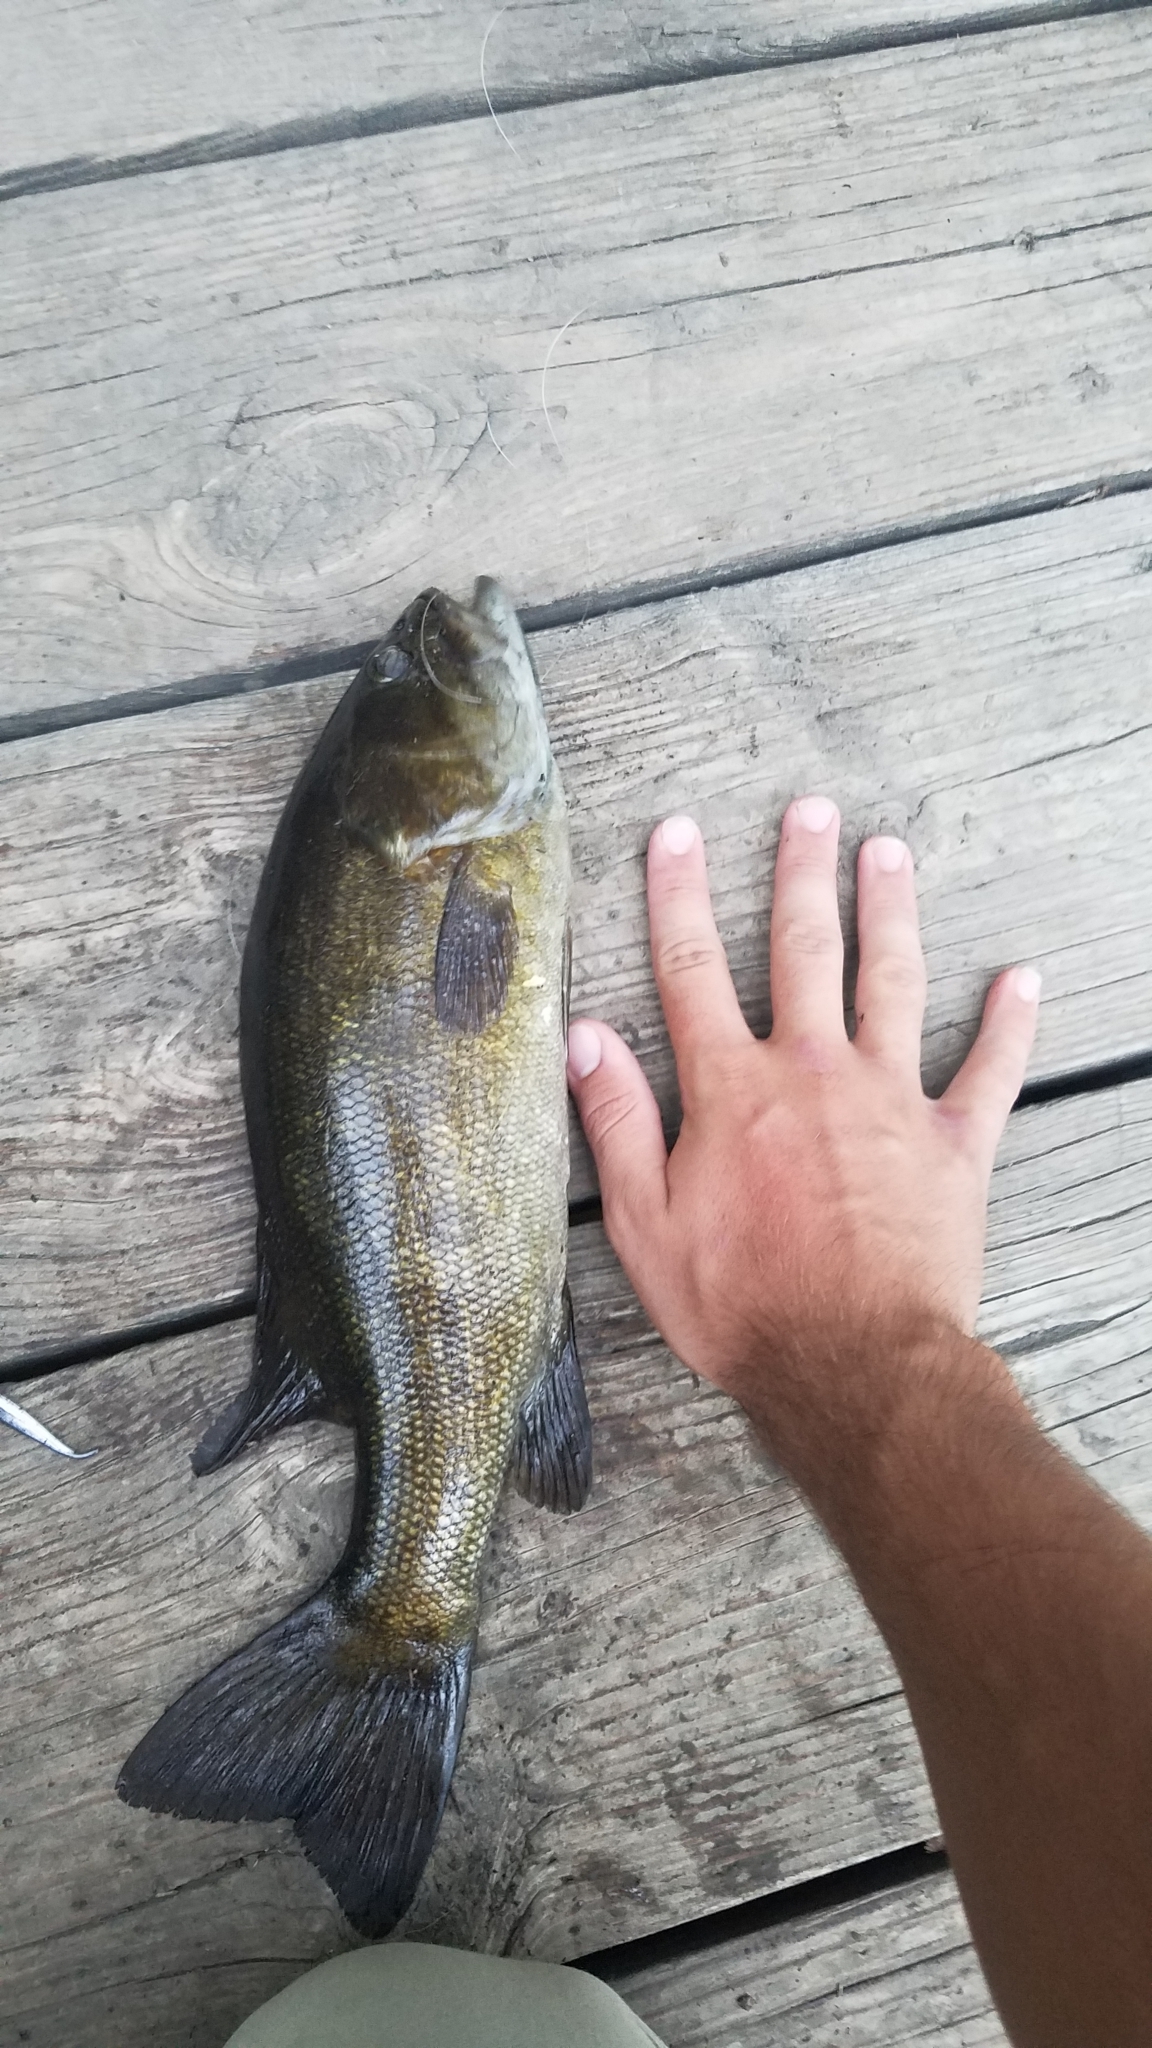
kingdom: Animalia
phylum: Chordata
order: Perciformes
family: Centrarchidae
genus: Micropterus
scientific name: Micropterus dolomieu
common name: Smallmouth bass
